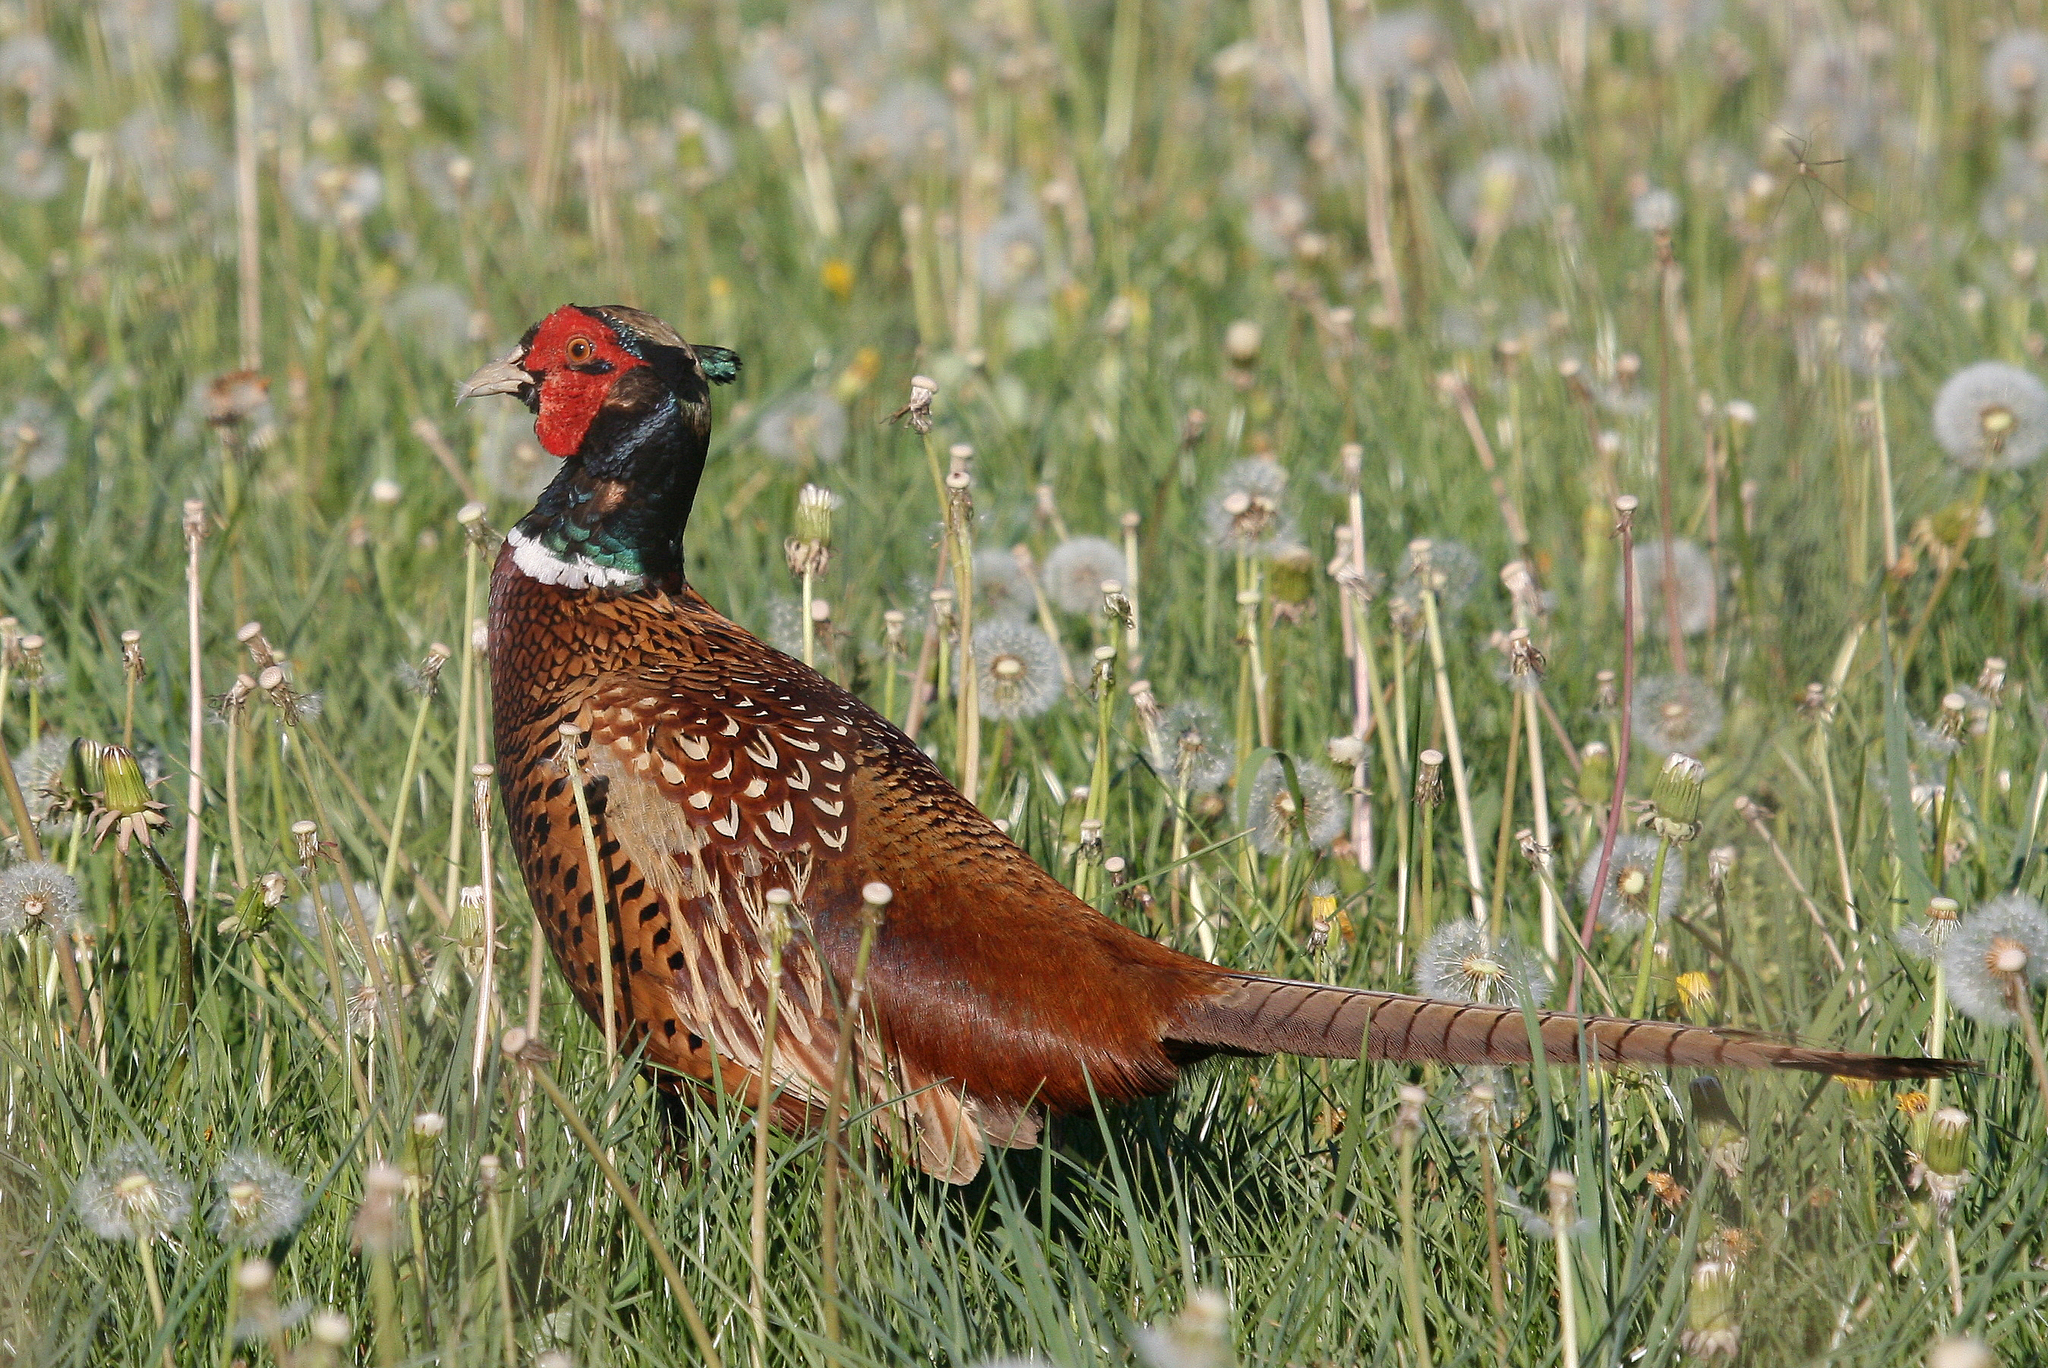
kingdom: Animalia
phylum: Chordata
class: Aves
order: Galliformes
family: Phasianidae
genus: Phasianus
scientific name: Phasianus colchicus
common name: Common pheasant
